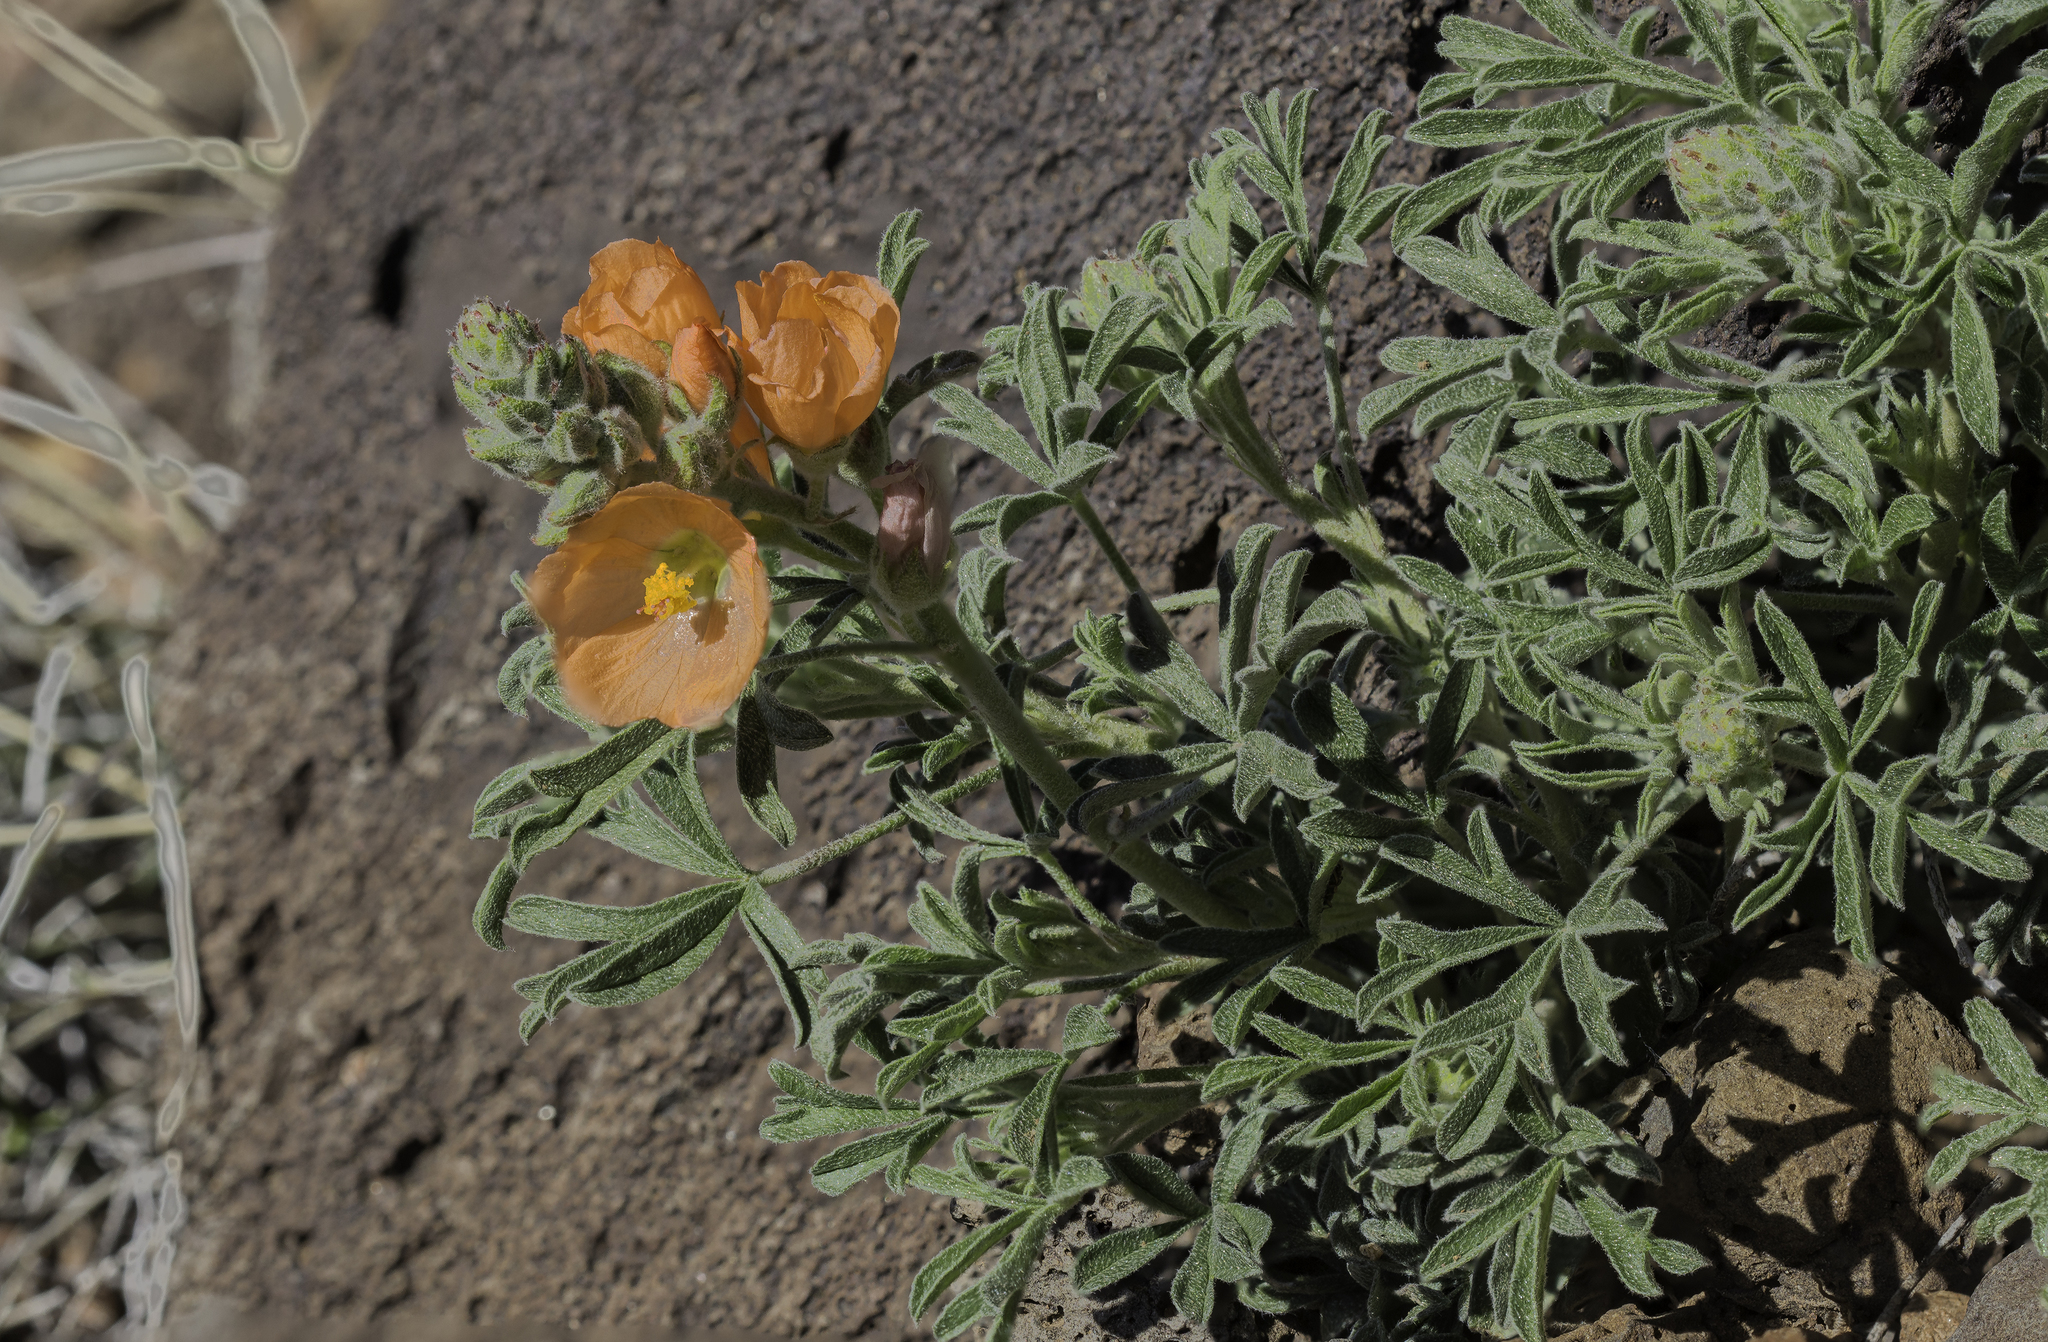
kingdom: Plantae
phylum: Tracheophyta
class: Magnoliopsida
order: Malvales
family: Malvaceae
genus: Sphaeralcea
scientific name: Sphaeralcea coccinea
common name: Moss-rose
